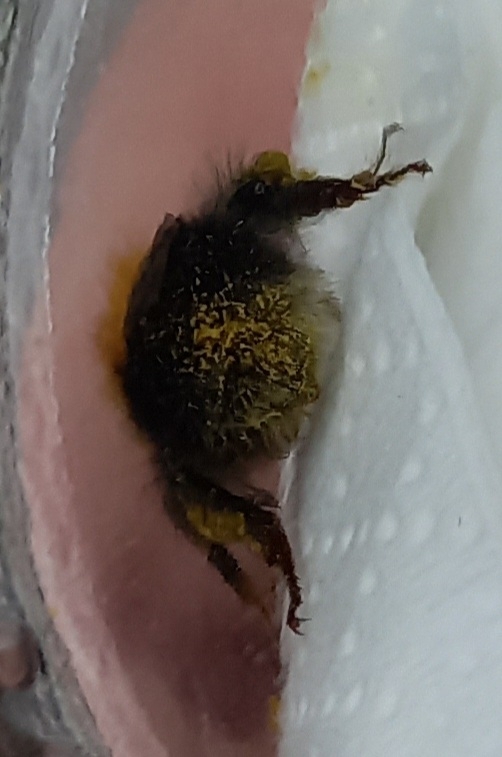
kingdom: Animalia
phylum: Arthropoda
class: Insecta
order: Hymenoptera
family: Apidae
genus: Bombus
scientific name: Bombus hypnorum
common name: New garden bumblebee
